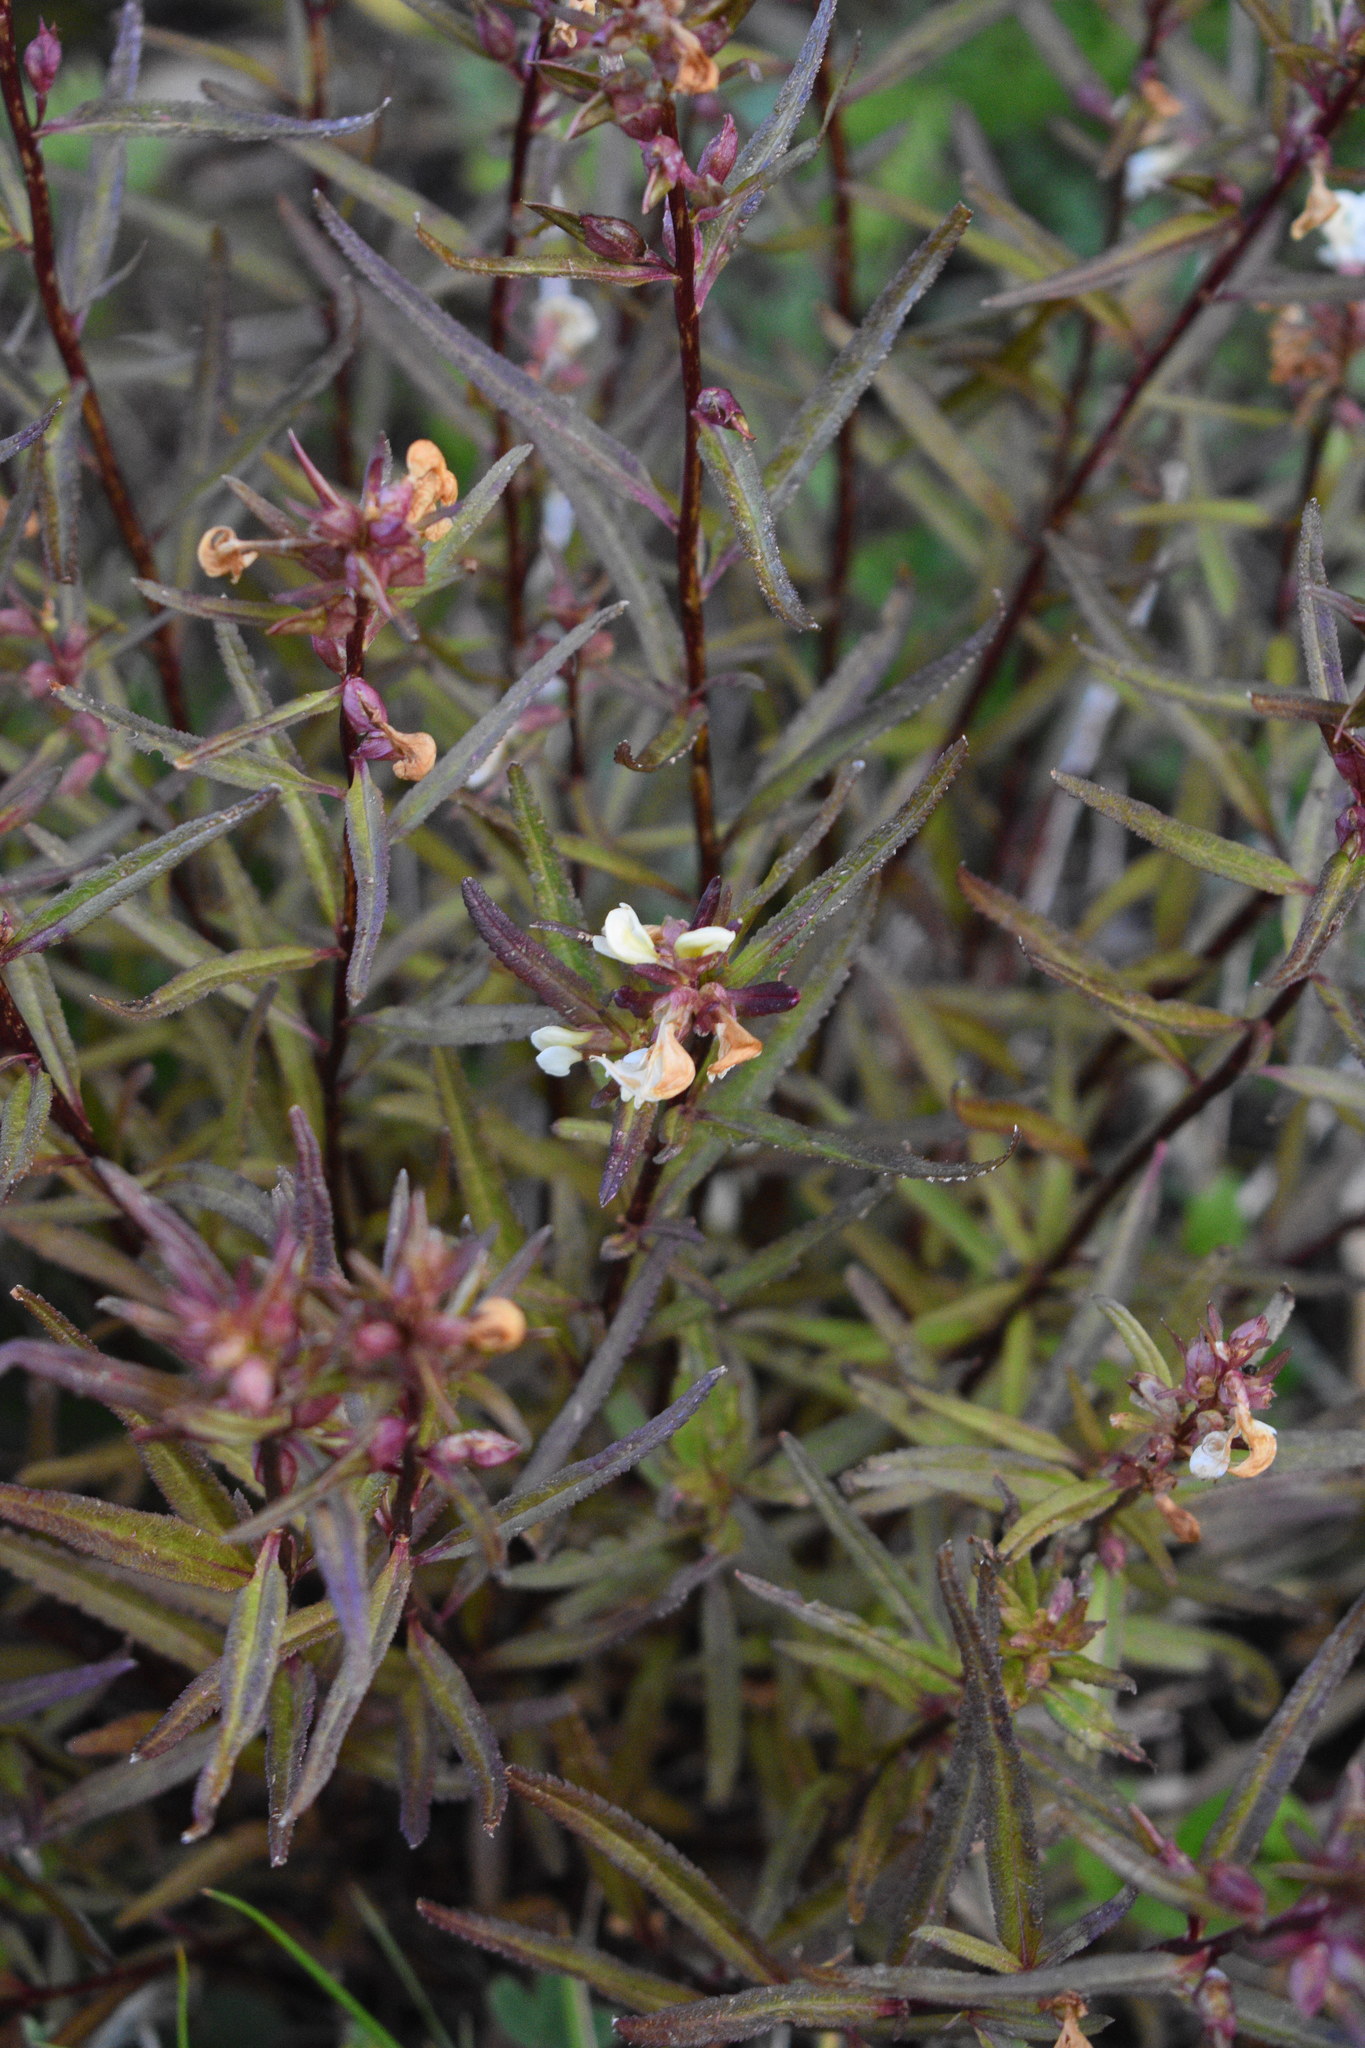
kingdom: Plantae
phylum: Tracheophyta
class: Magnoliopsida
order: Lamiales
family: Orobanchaceae
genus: Pedicularis
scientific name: Pedicularis racemosa
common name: Leafy lousewort
